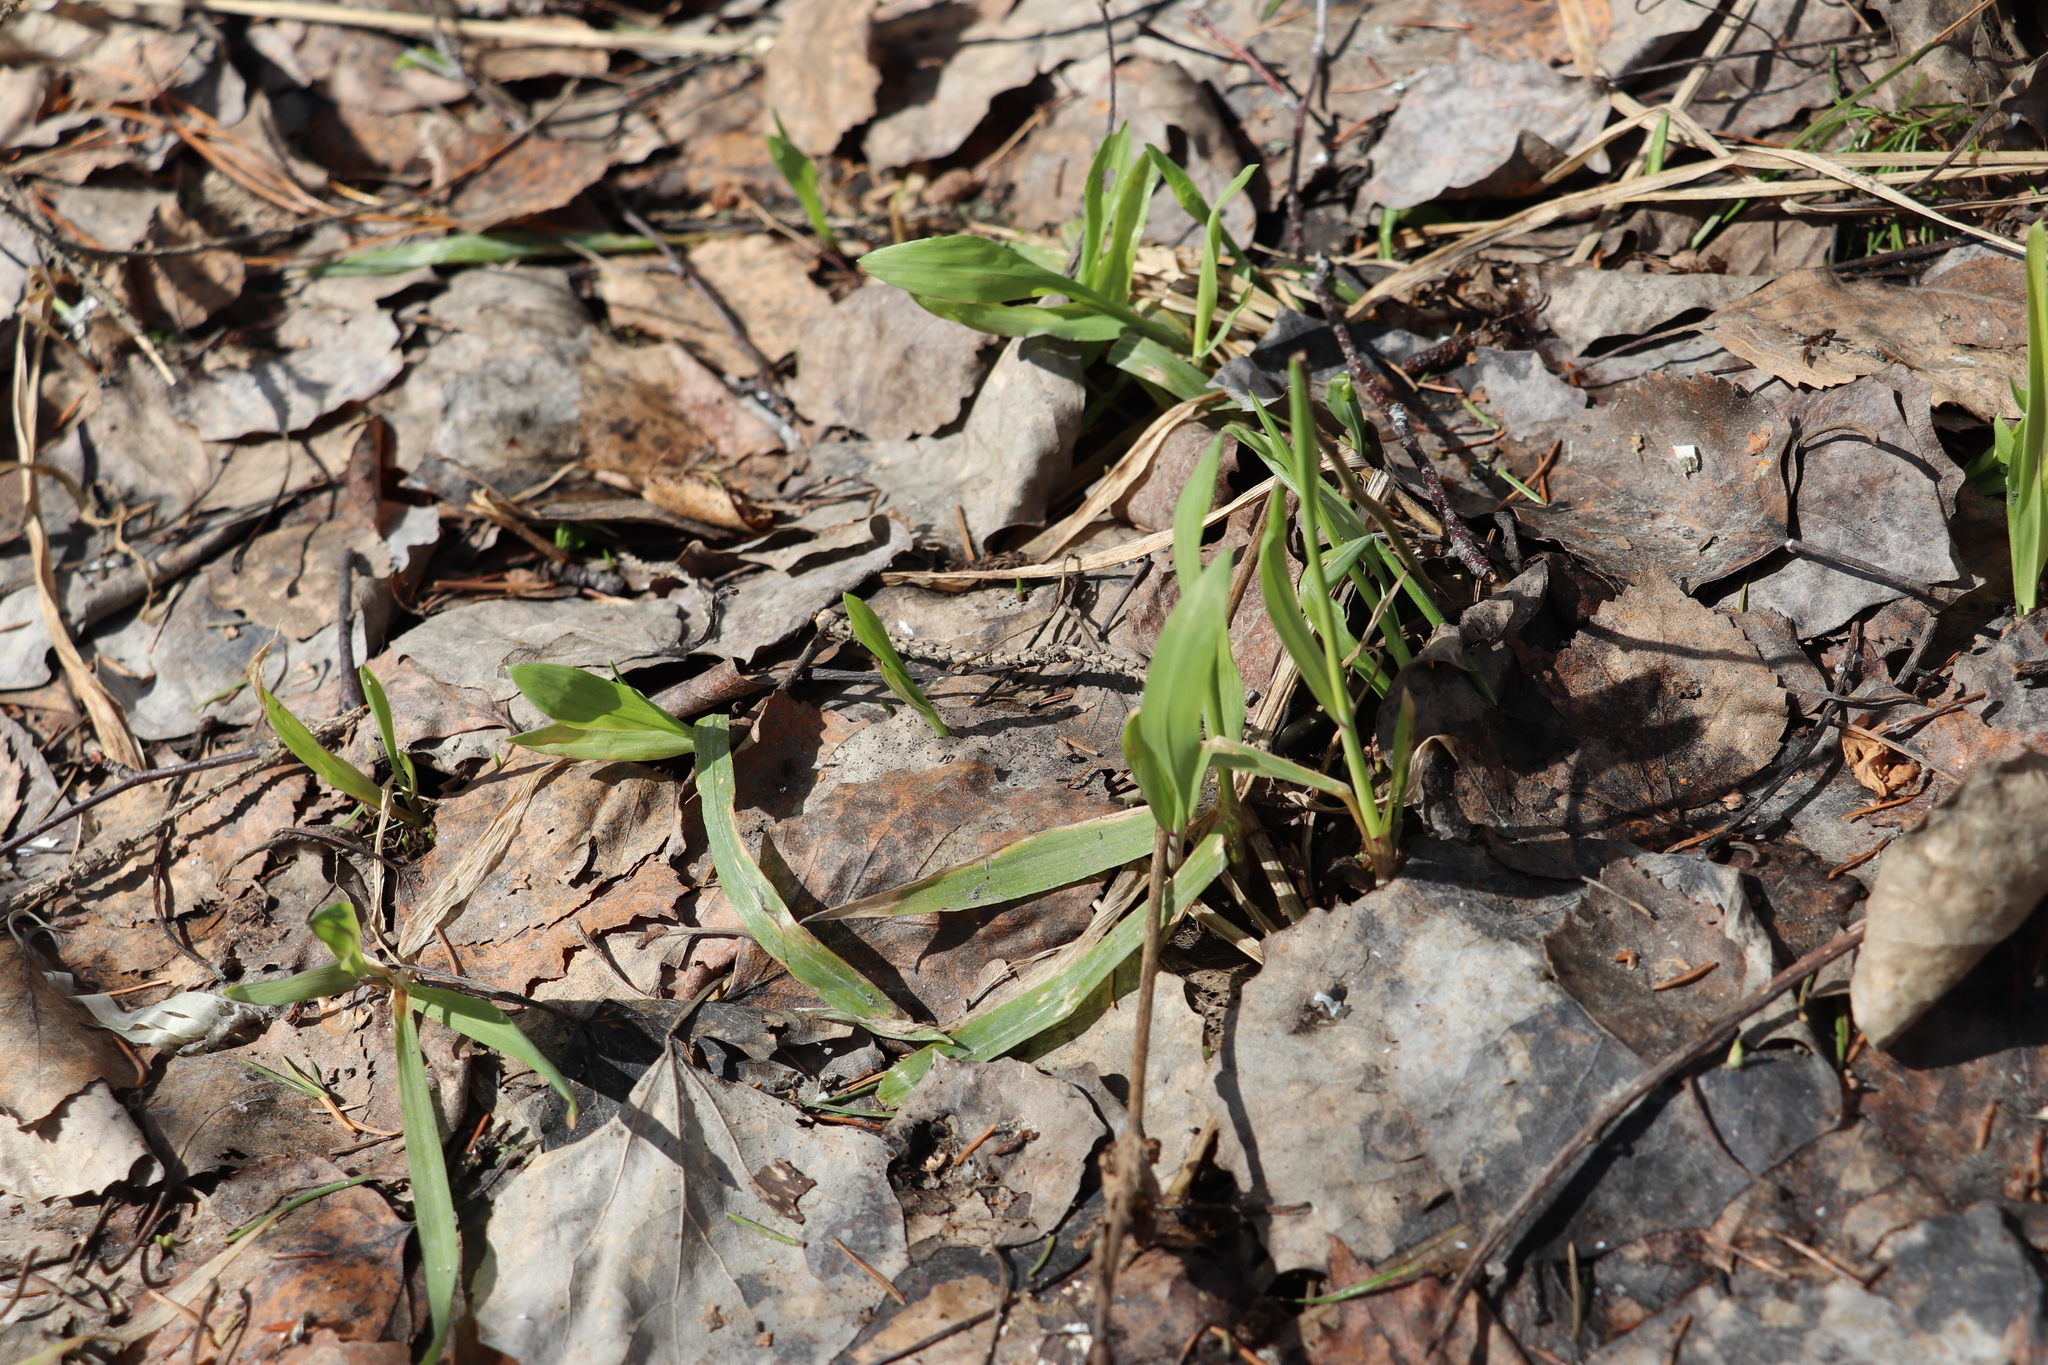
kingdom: Plantae
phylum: Tracheophyta
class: Liliopsida
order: Poales
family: Poaceae
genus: Milium
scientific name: Milium effusum
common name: Wood millet
